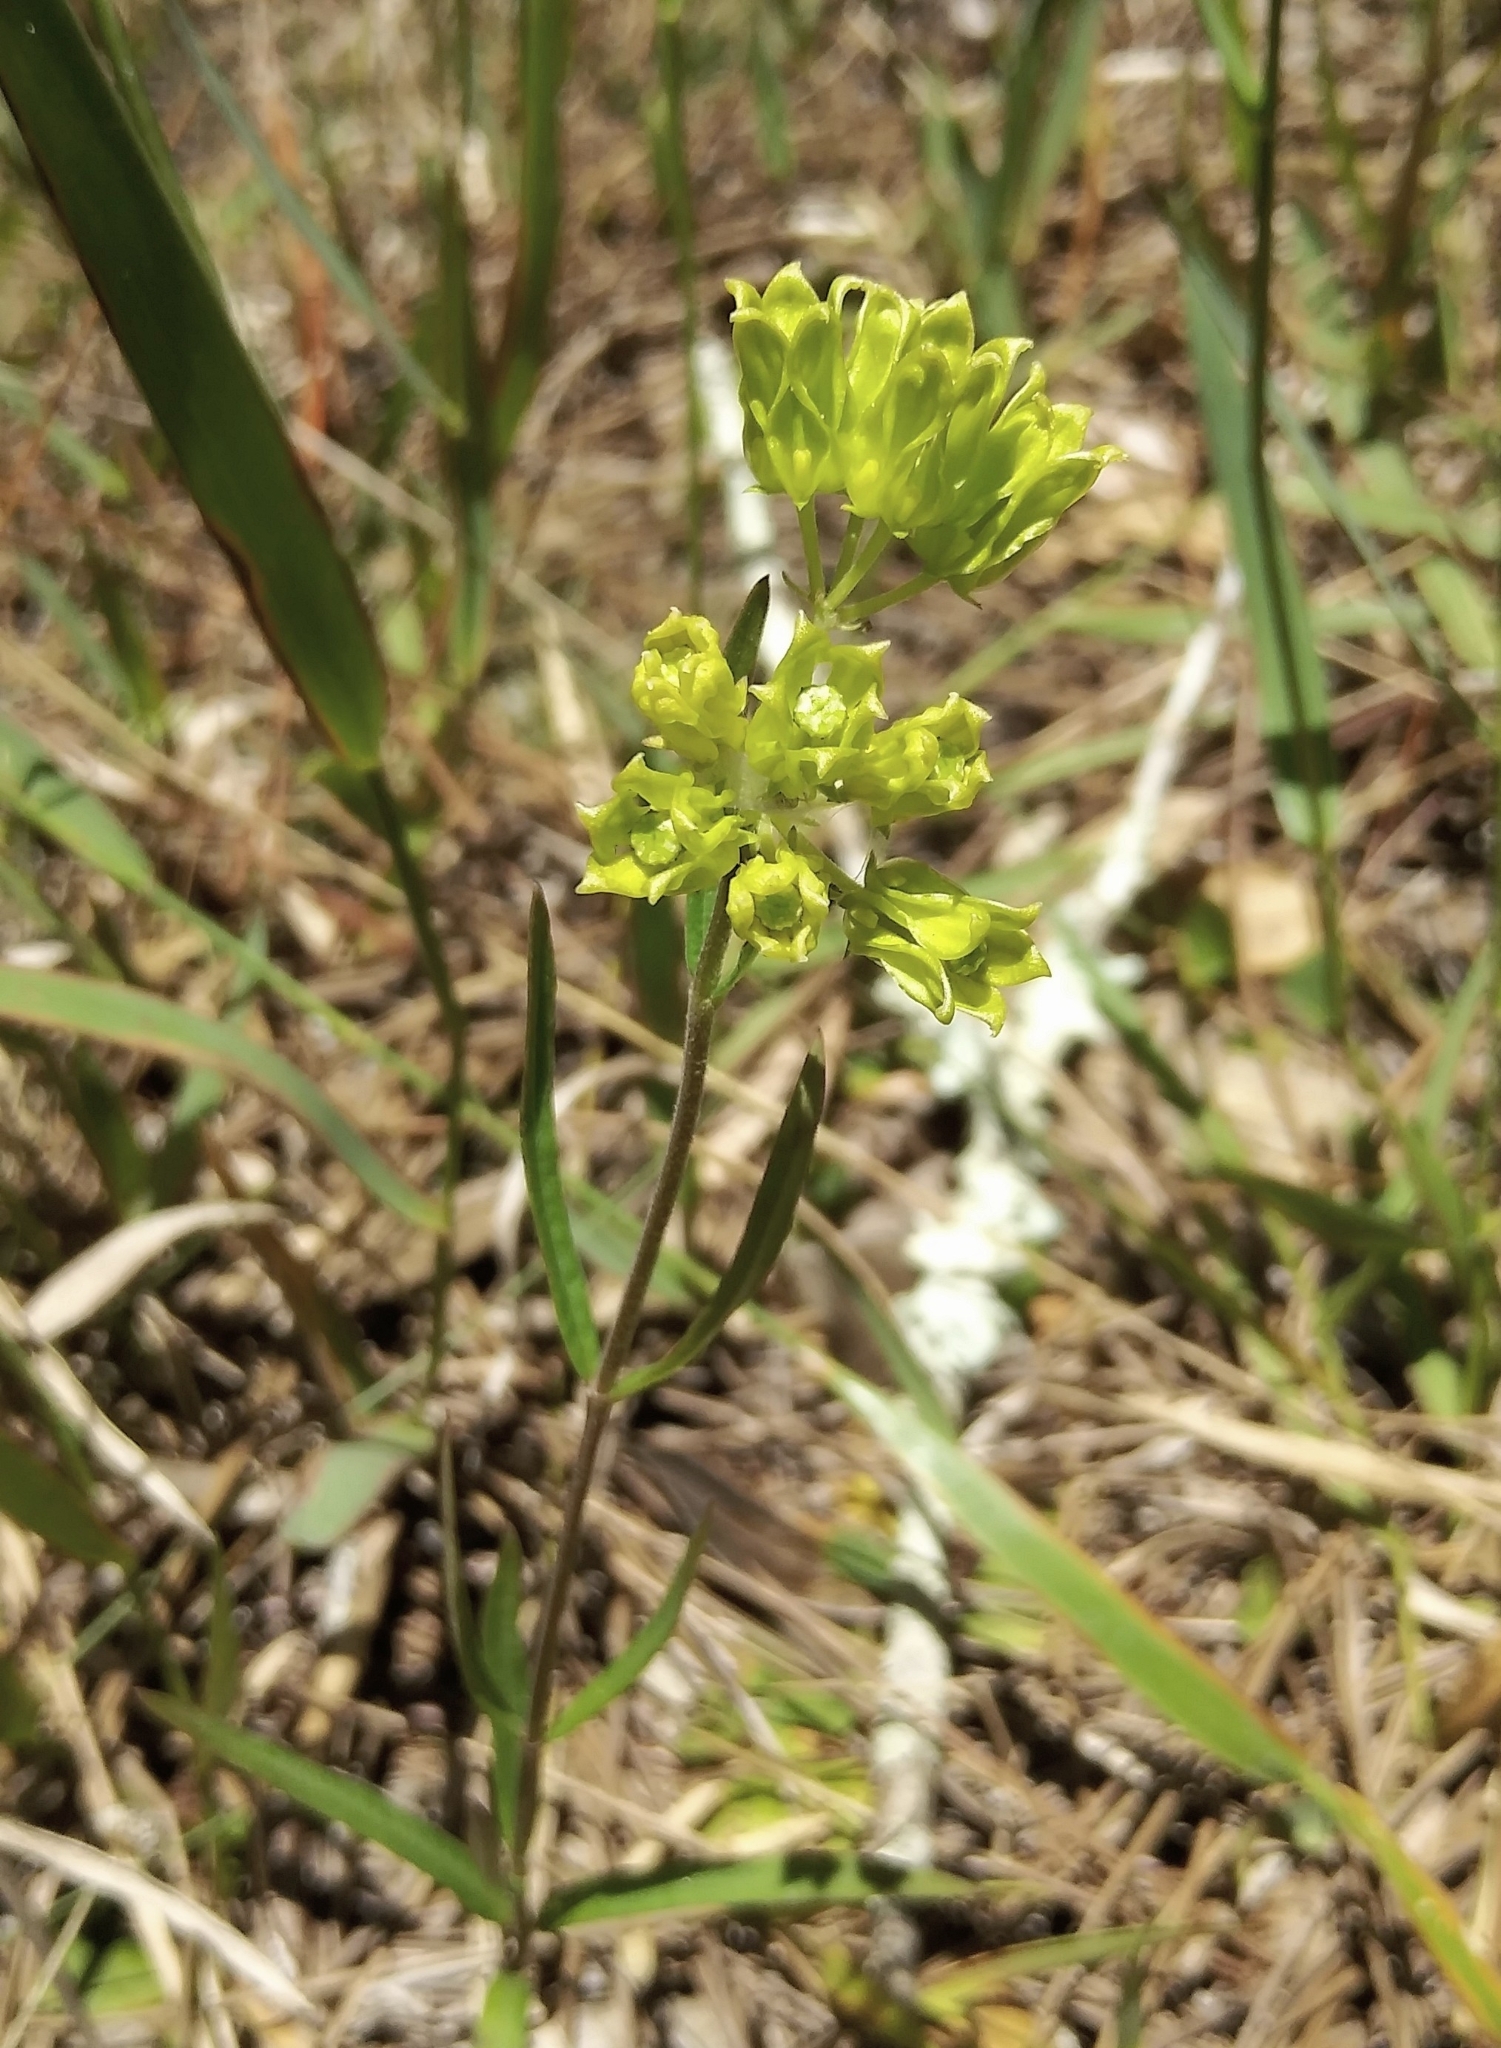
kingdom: Plantae
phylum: Tracheophyta
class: Magnoliopsida
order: Gentianales
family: Apocynaceae
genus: Asclepias
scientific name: Asclepias pedicellata
